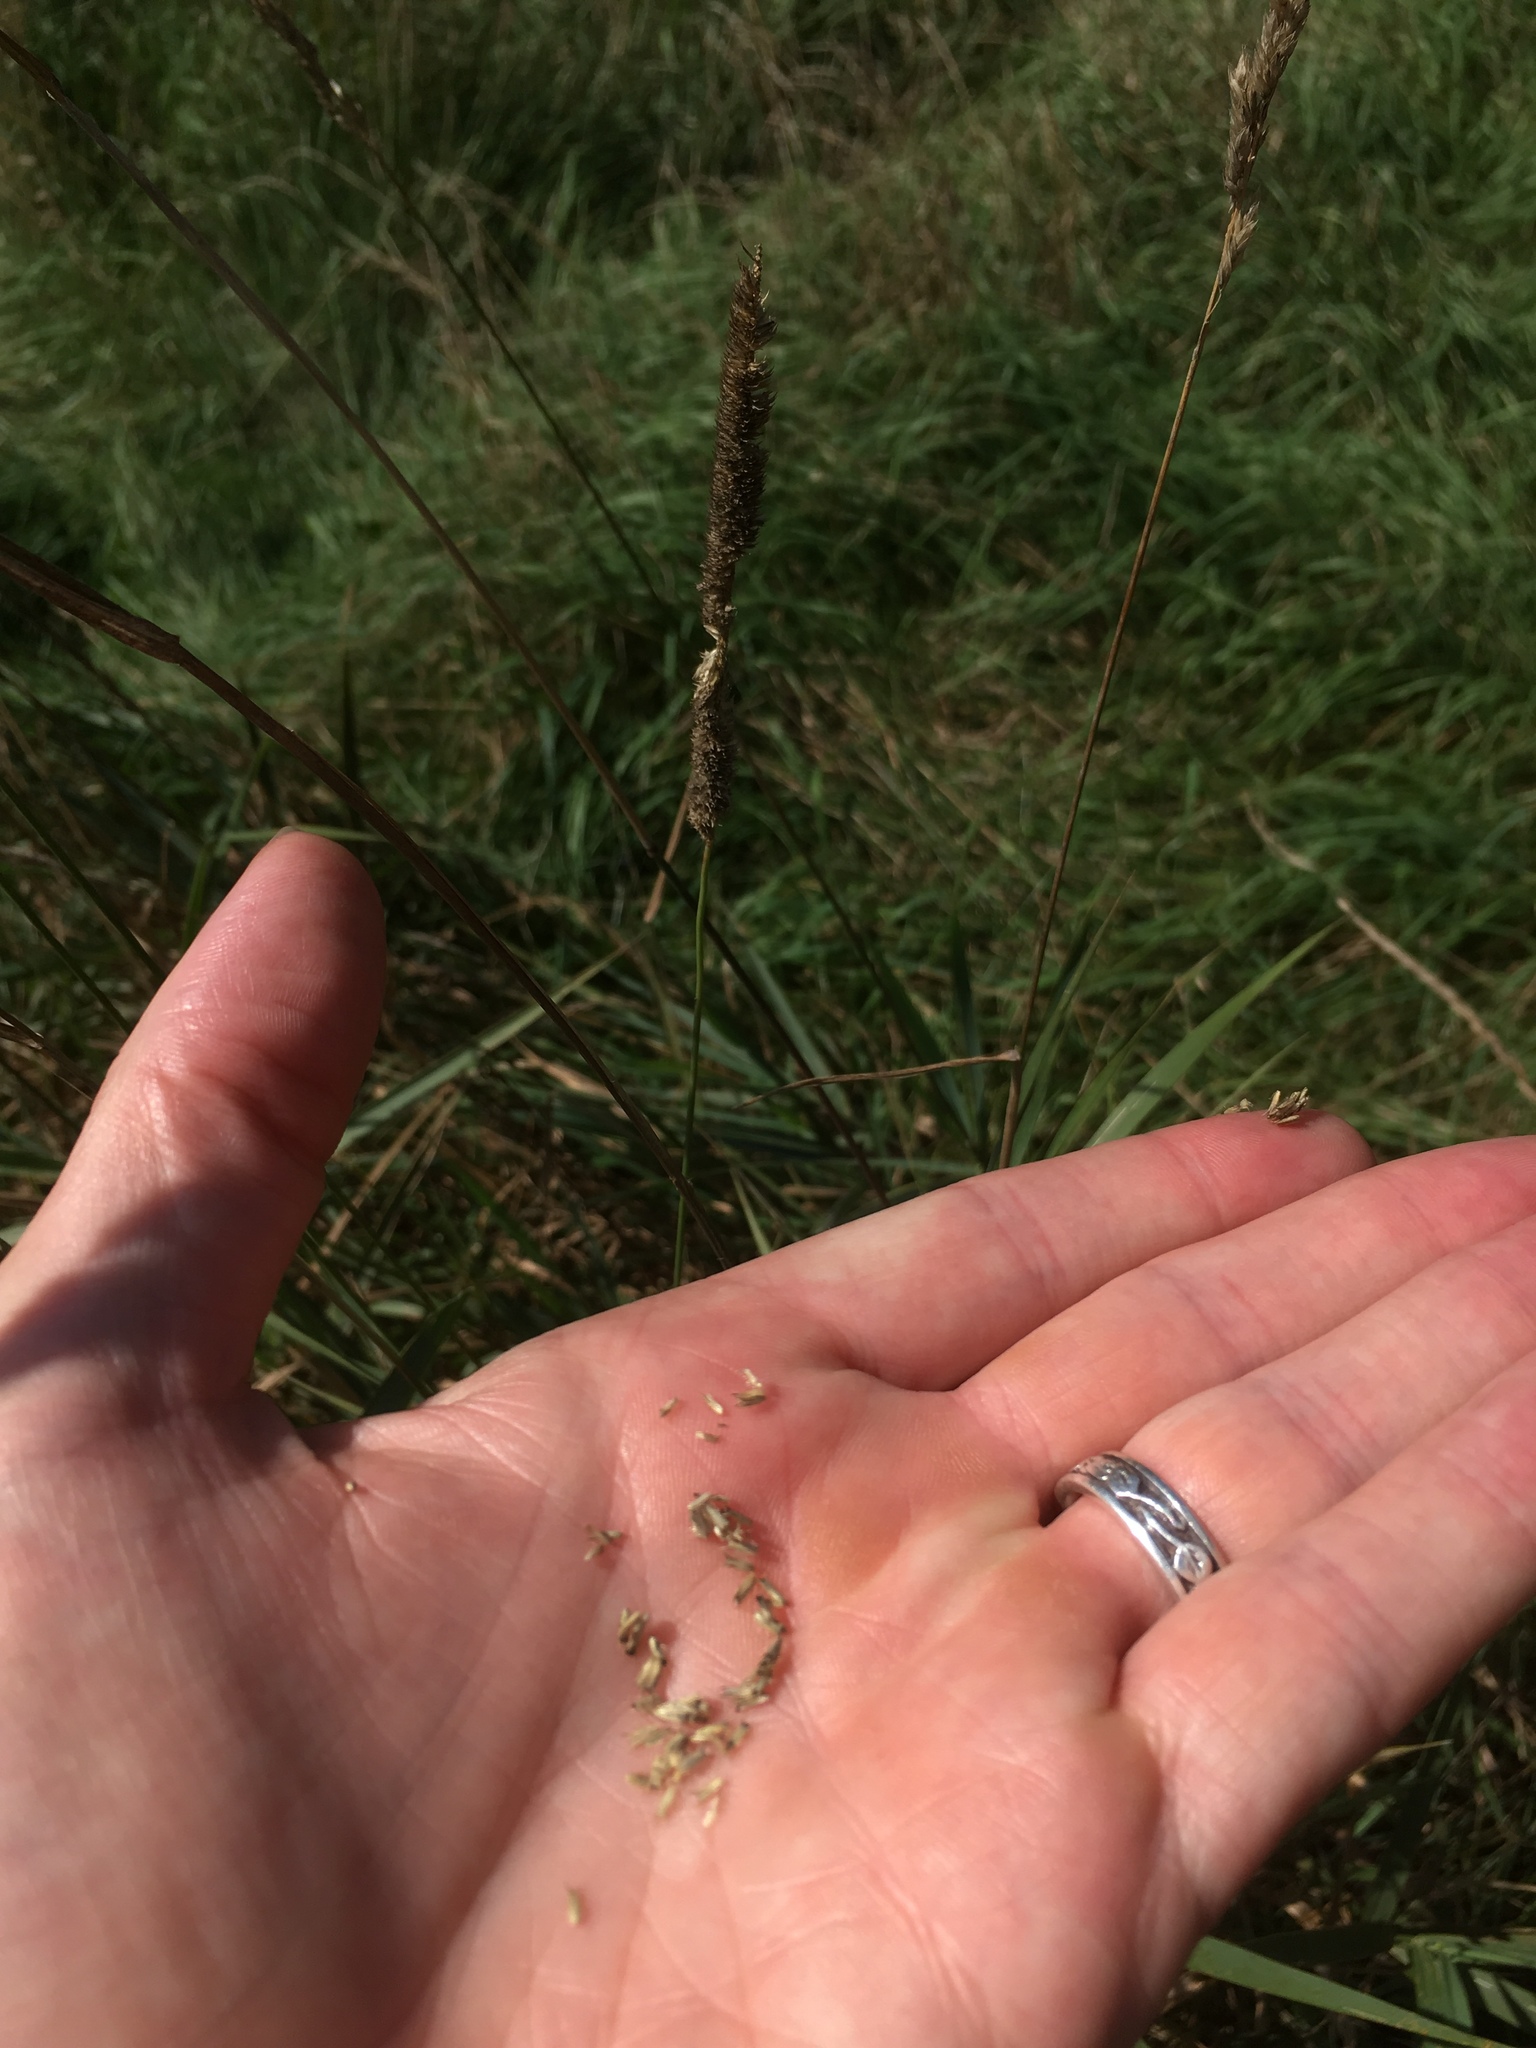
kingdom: Plantae
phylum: Tracheophyta
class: Liliopsida
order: Poales
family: Poaceae
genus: Phleum
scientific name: Phleum pratense
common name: Timothy grass
